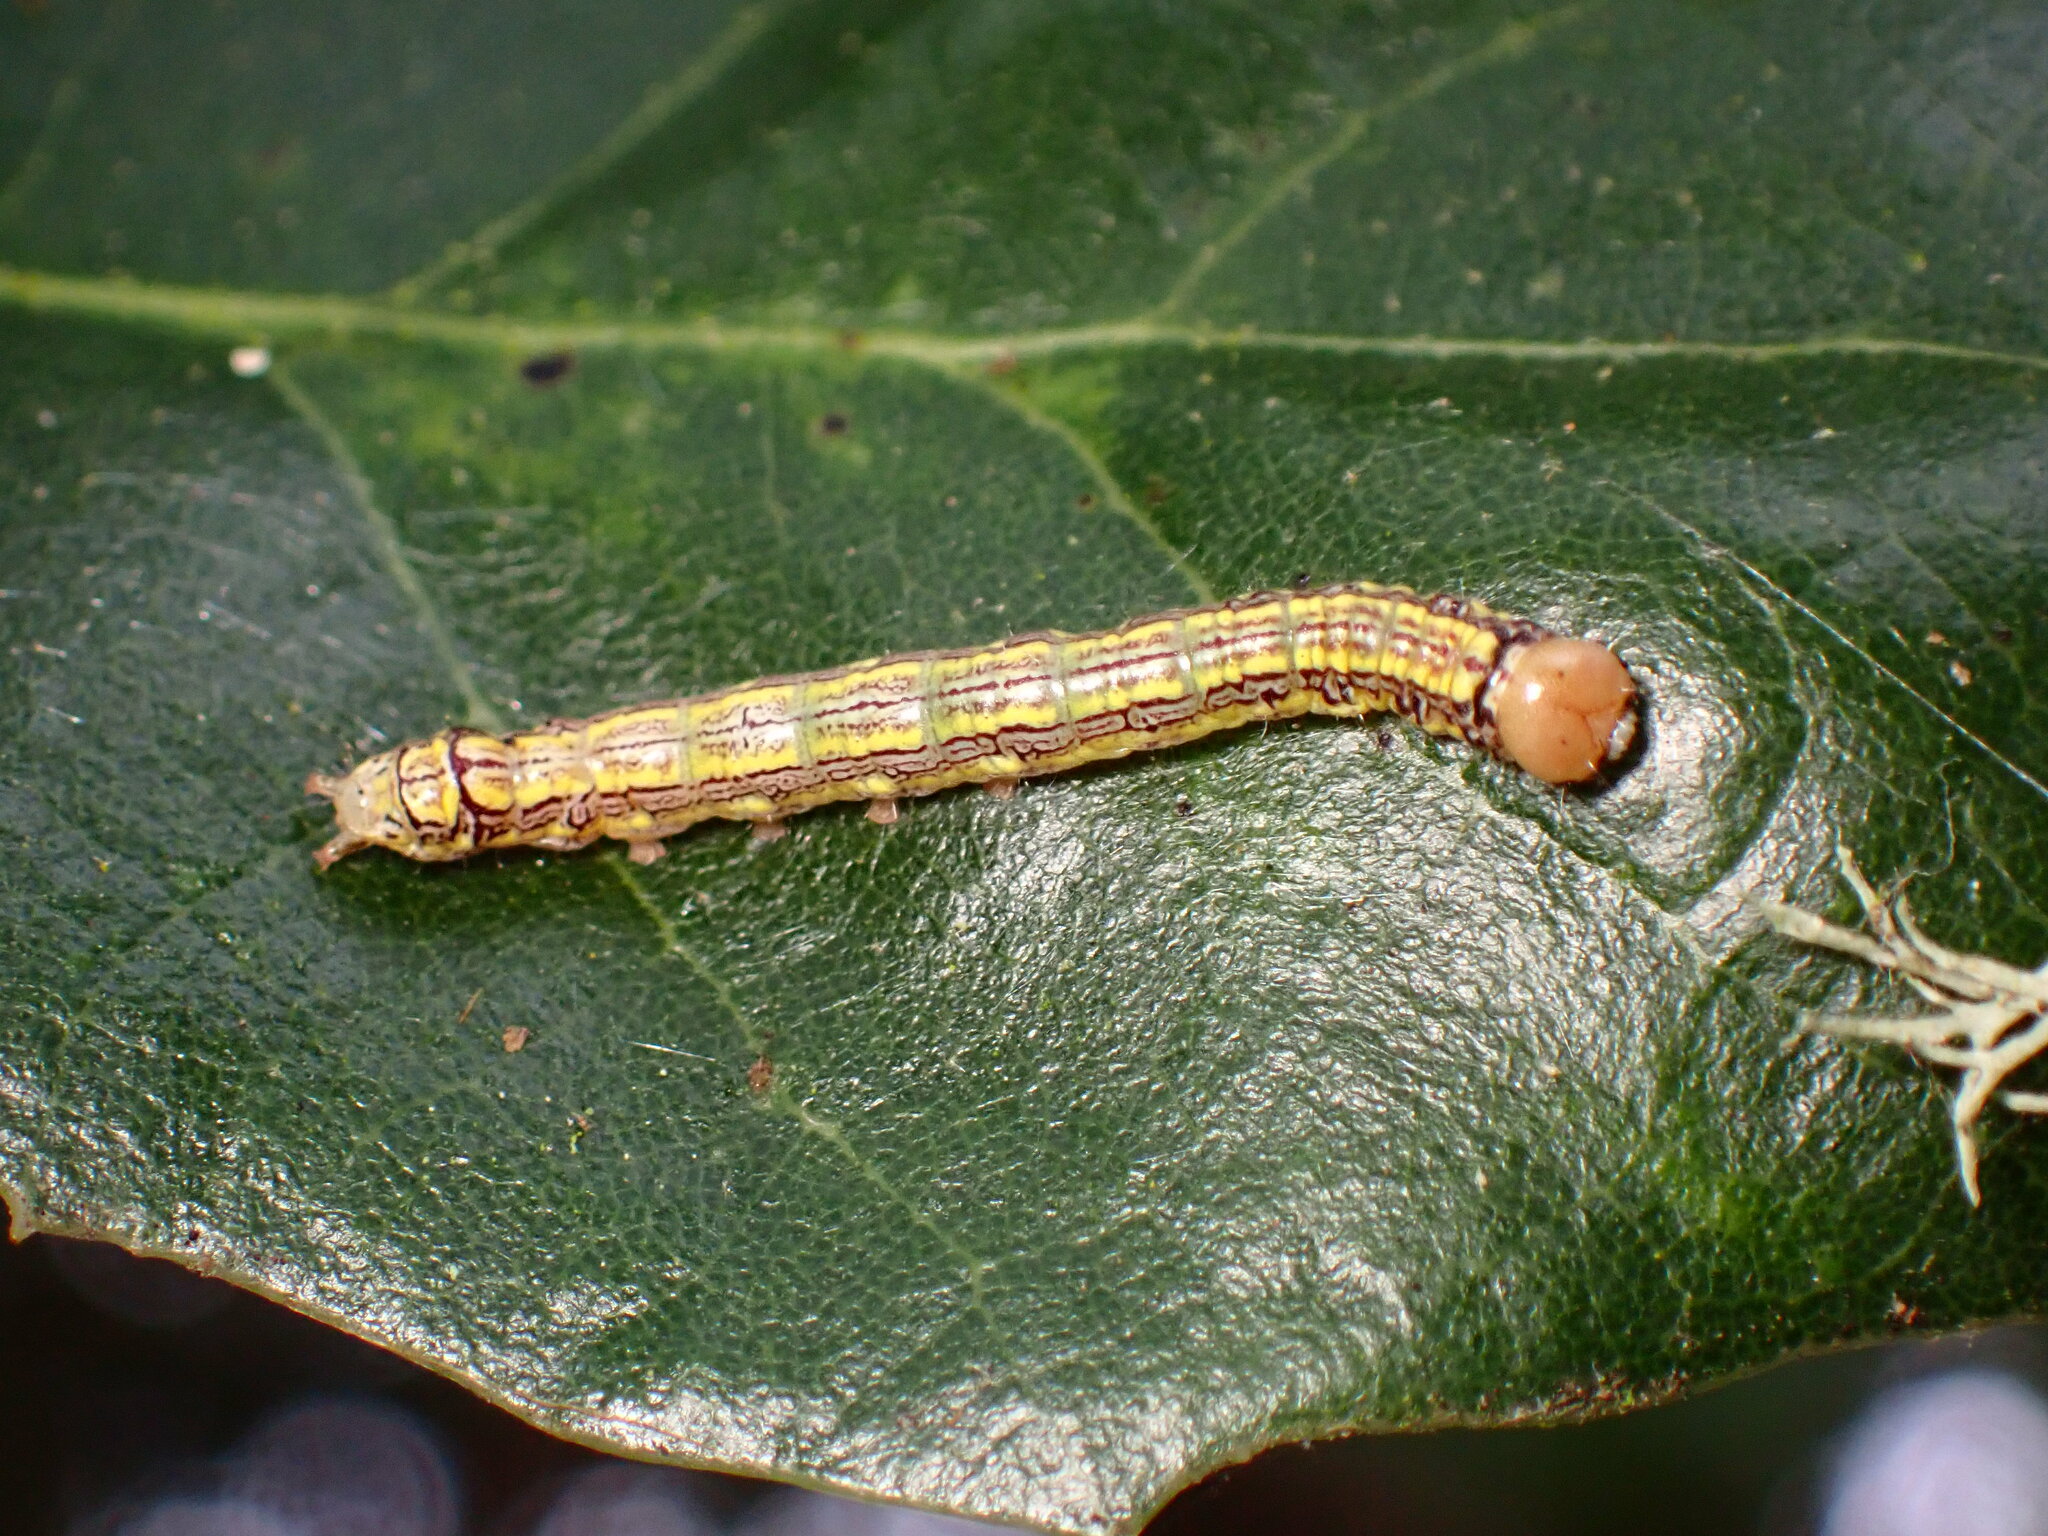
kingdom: Animalia
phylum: Arthropoda
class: Insecta
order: Lepidoptera
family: Notodontidae
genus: Phryganidia
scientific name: Phryganidia californica
